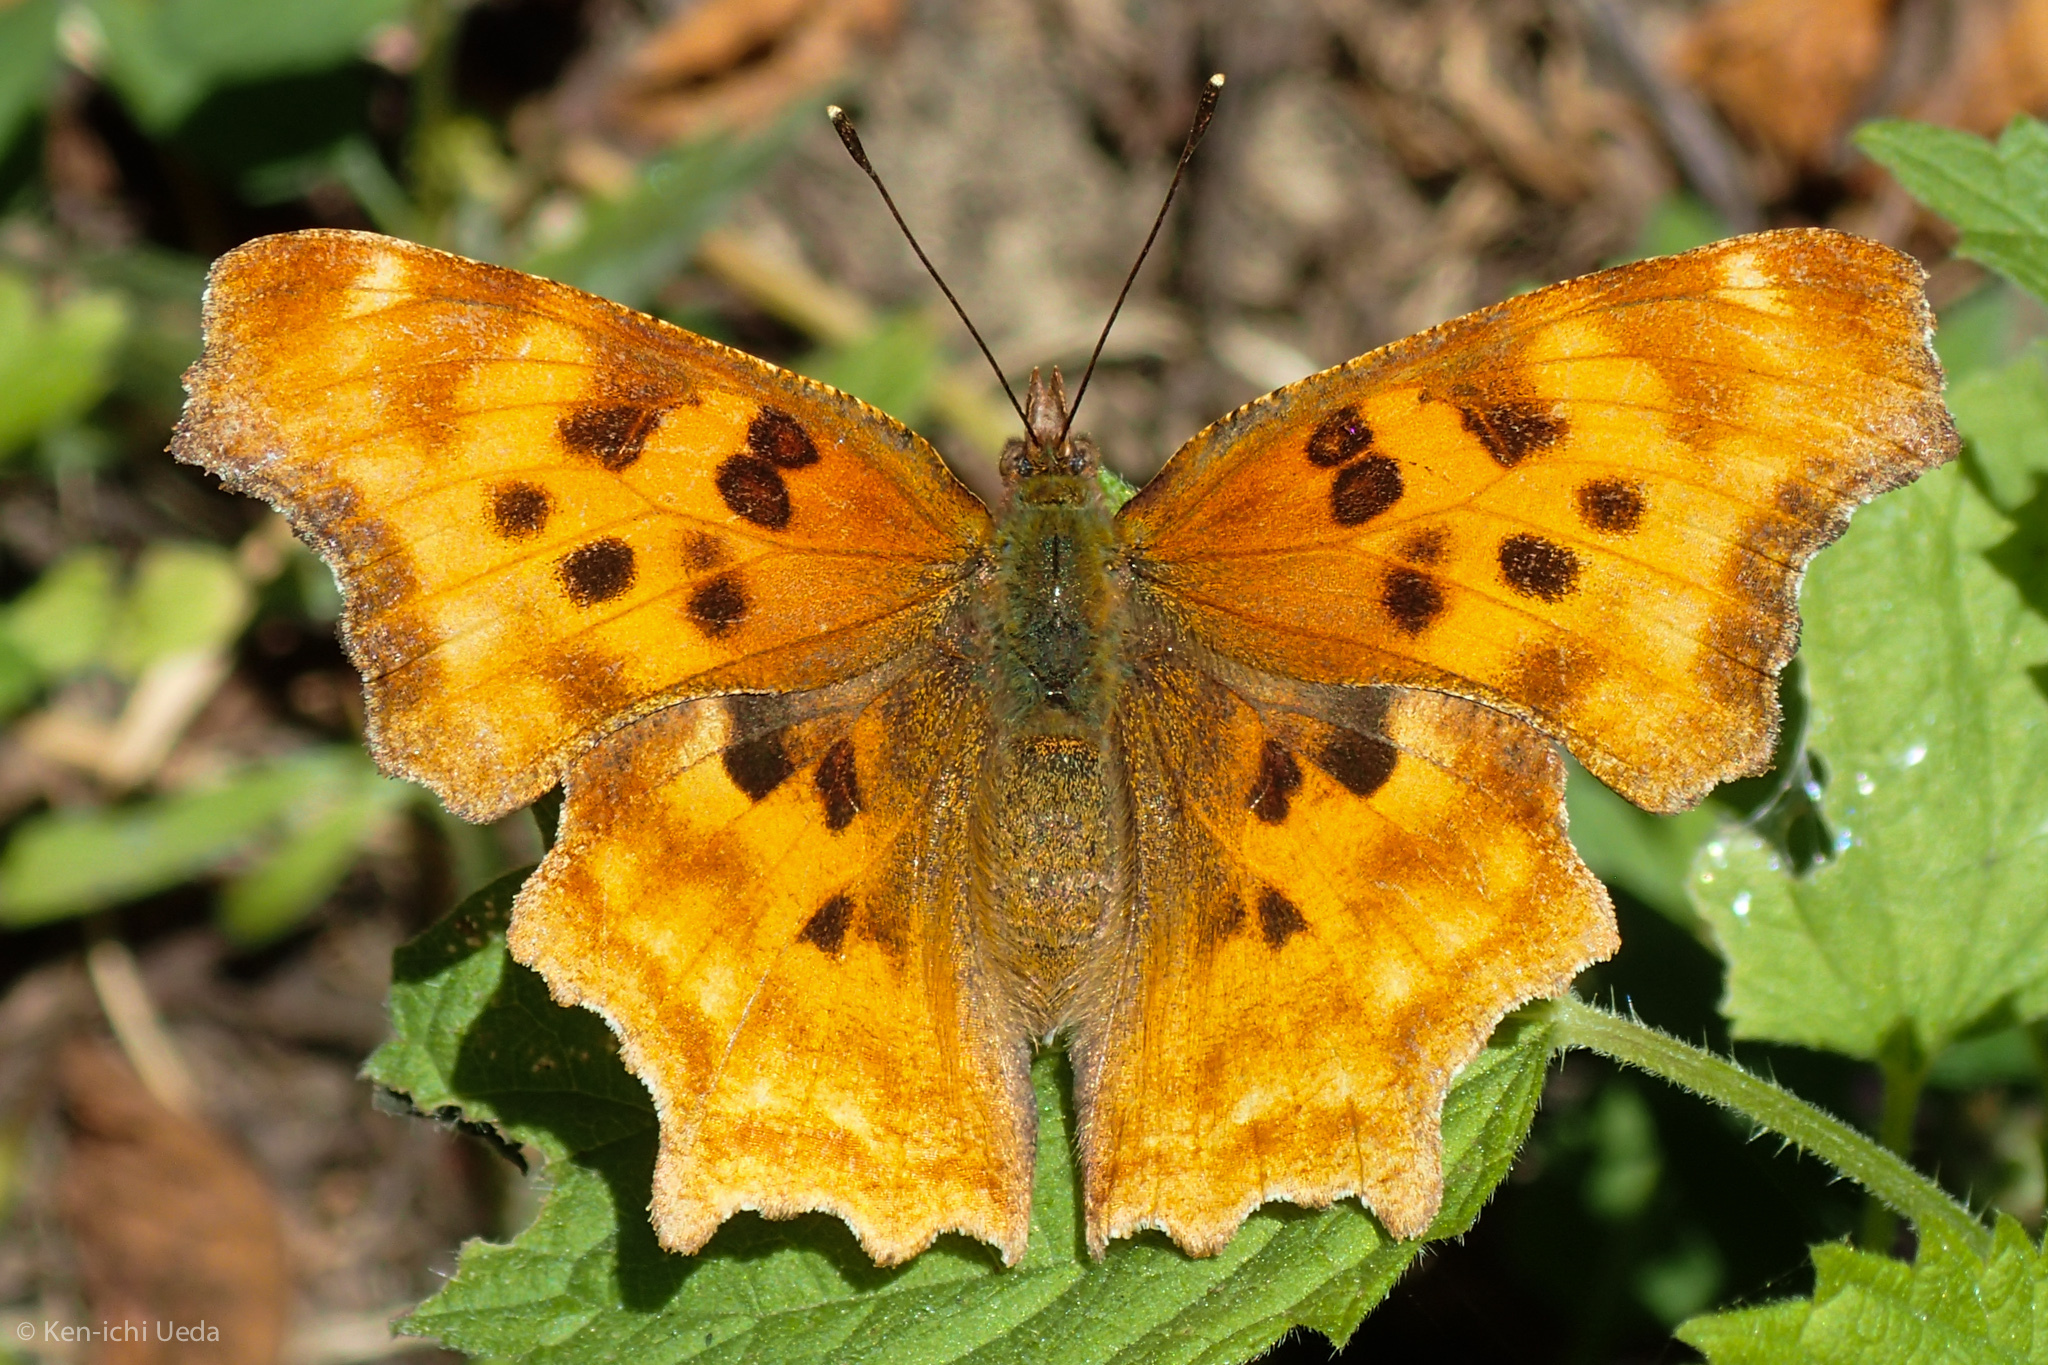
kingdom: Animalia
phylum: Arthropoda
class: Insecta
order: Lepidoptera
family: Nymphalidae
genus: Polygonia
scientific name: Polygonia satyrus
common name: Satyr angle wing
